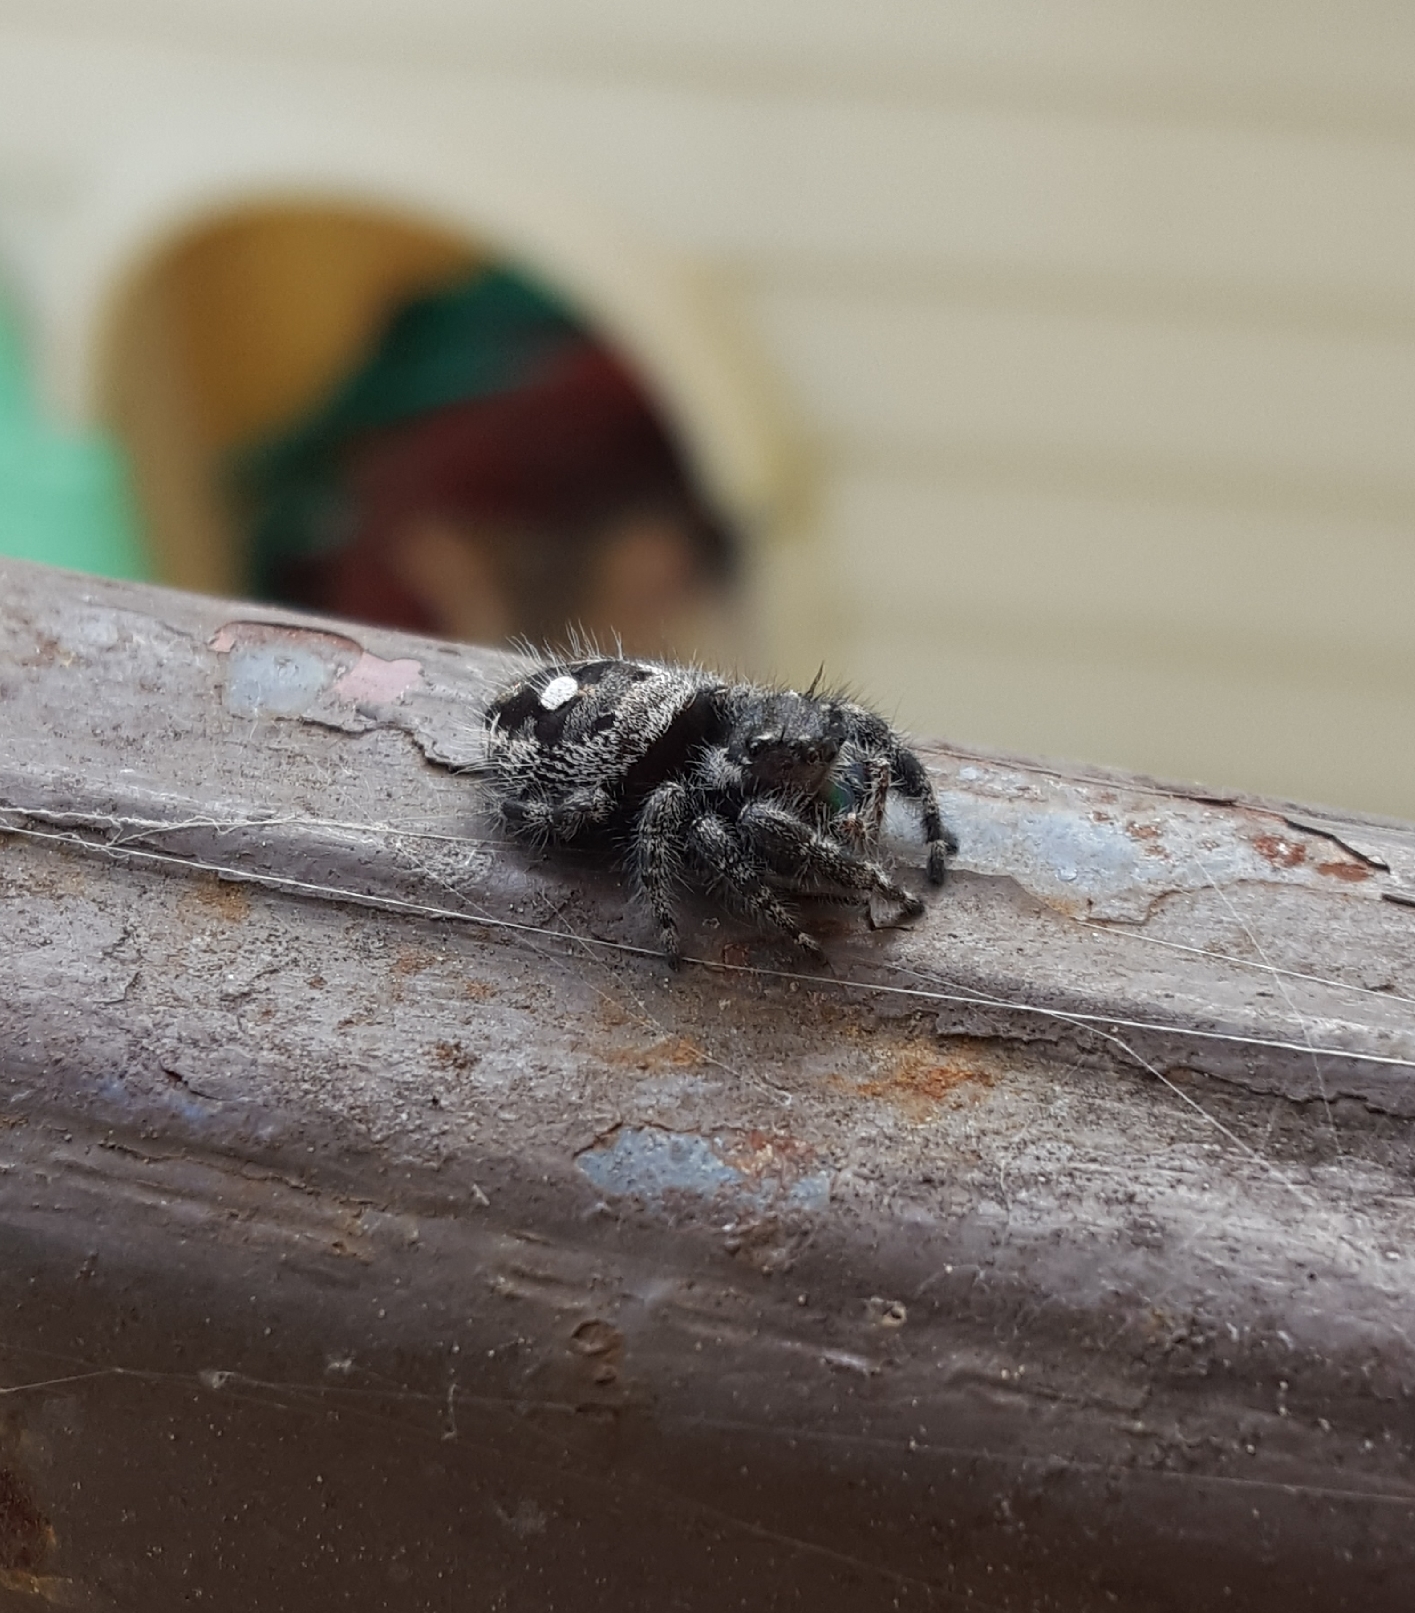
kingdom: Animalia
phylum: Arthropoda
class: Arachnida
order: Araneae
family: Salticidae
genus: Phidippus
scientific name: Phidippus audax
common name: Bold jumper
